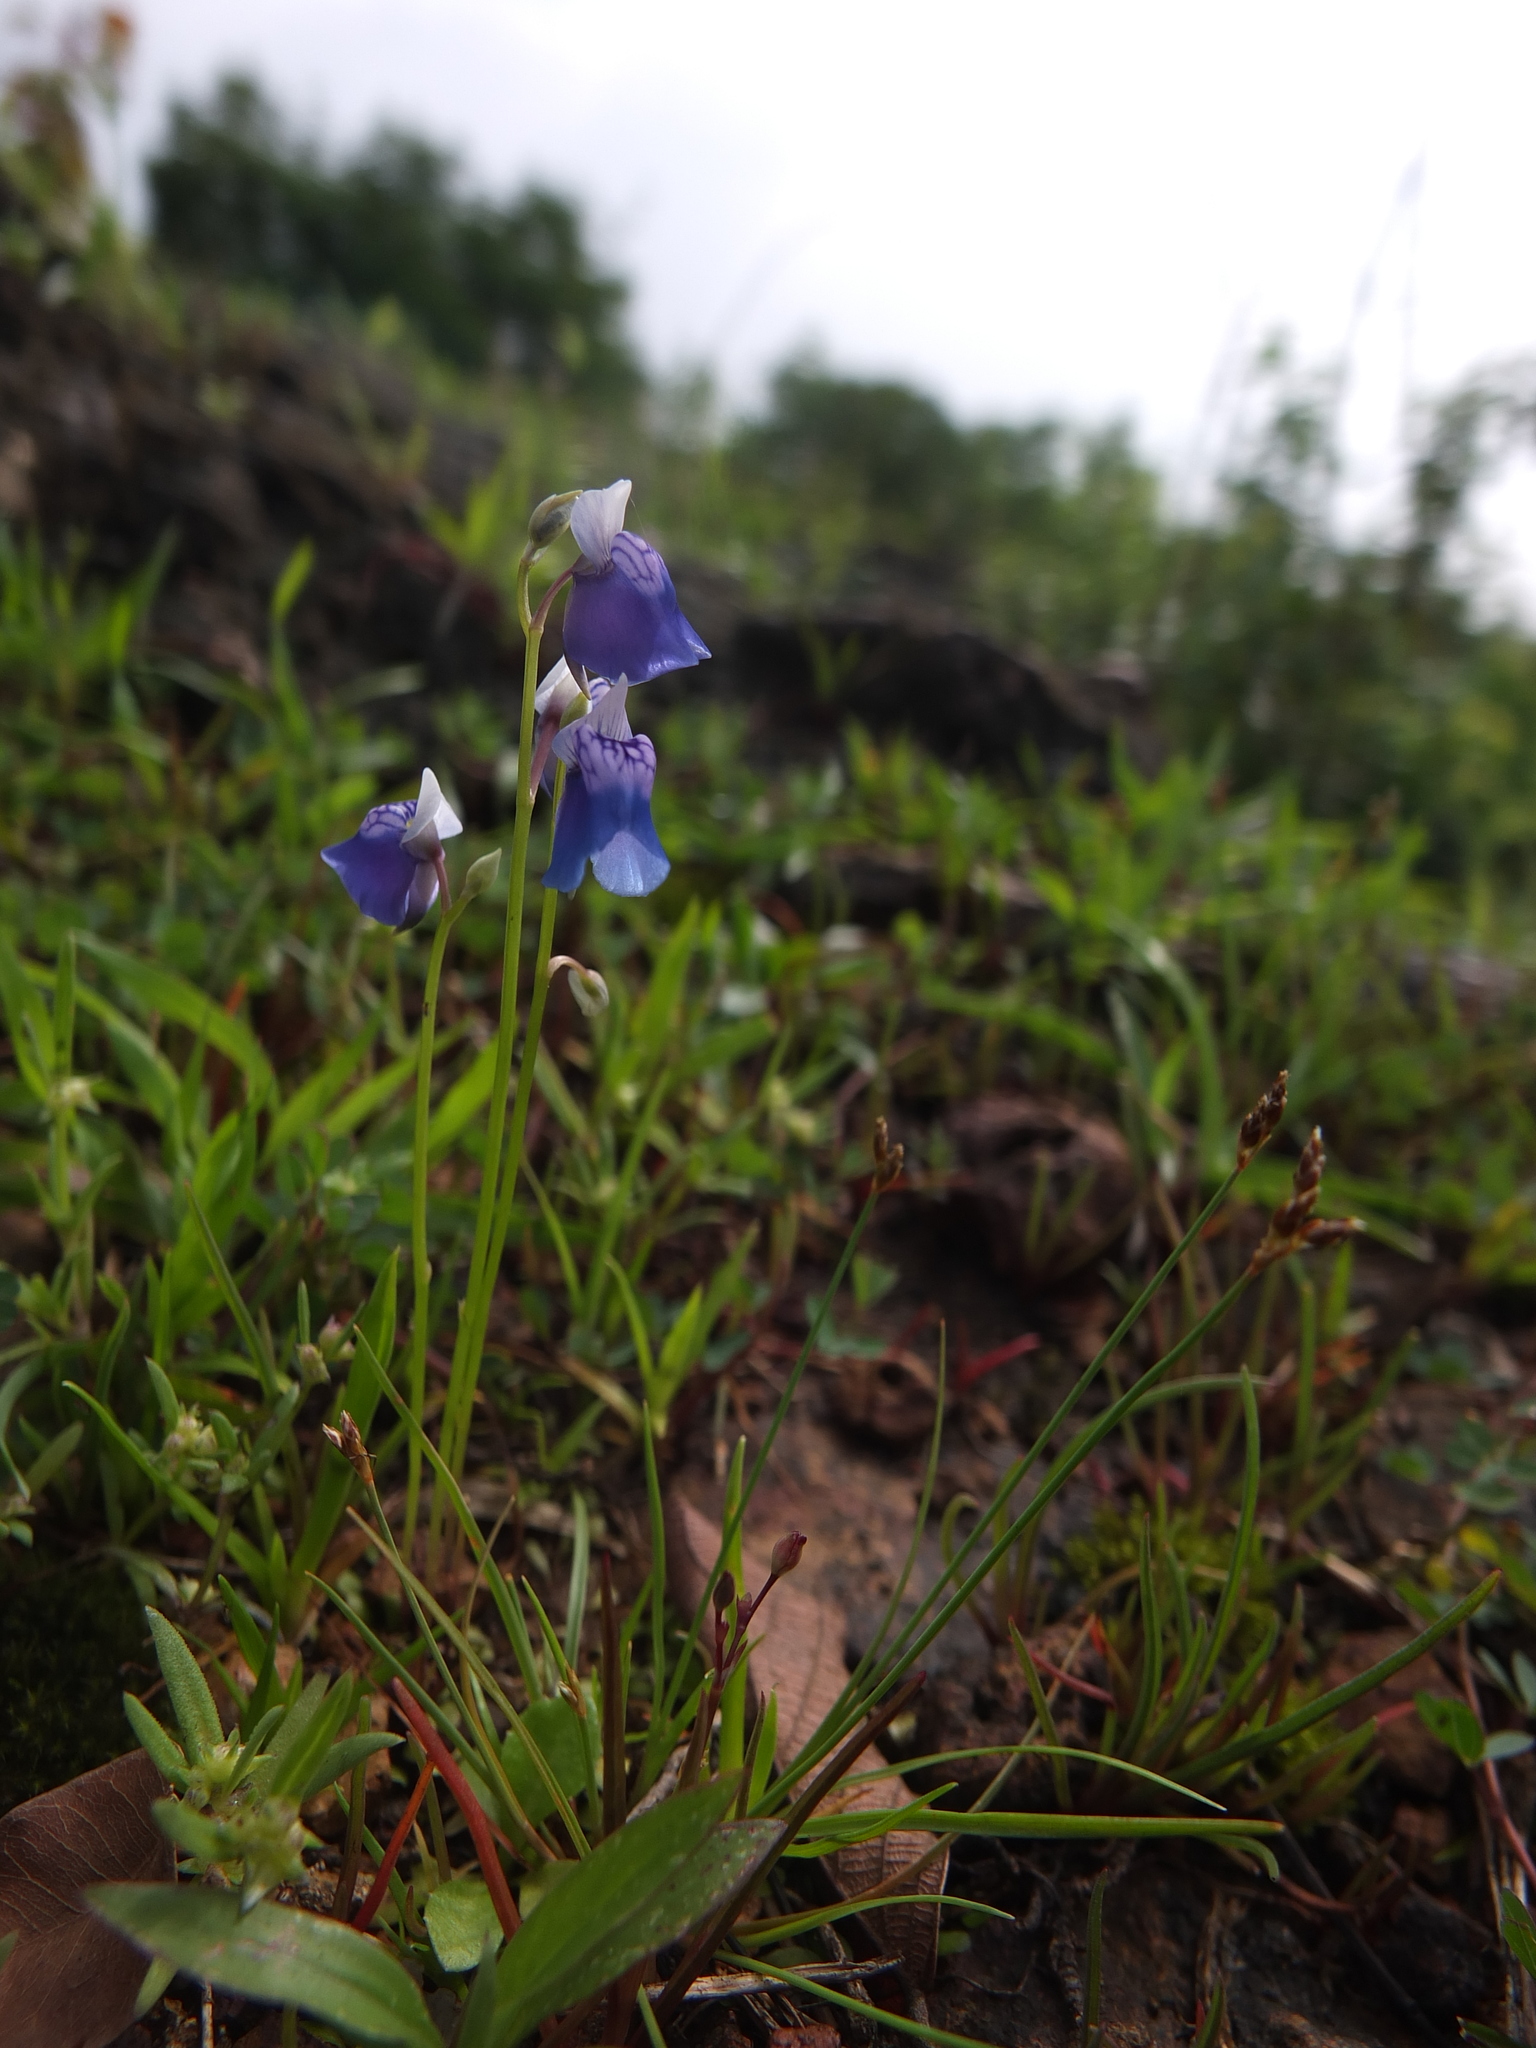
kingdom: Plantae
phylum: Tracheophyta
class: Magnoliopsida
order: Lamiales
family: Lentibulariaceae
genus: Utricularia
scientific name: Utricularia albocaerulea
